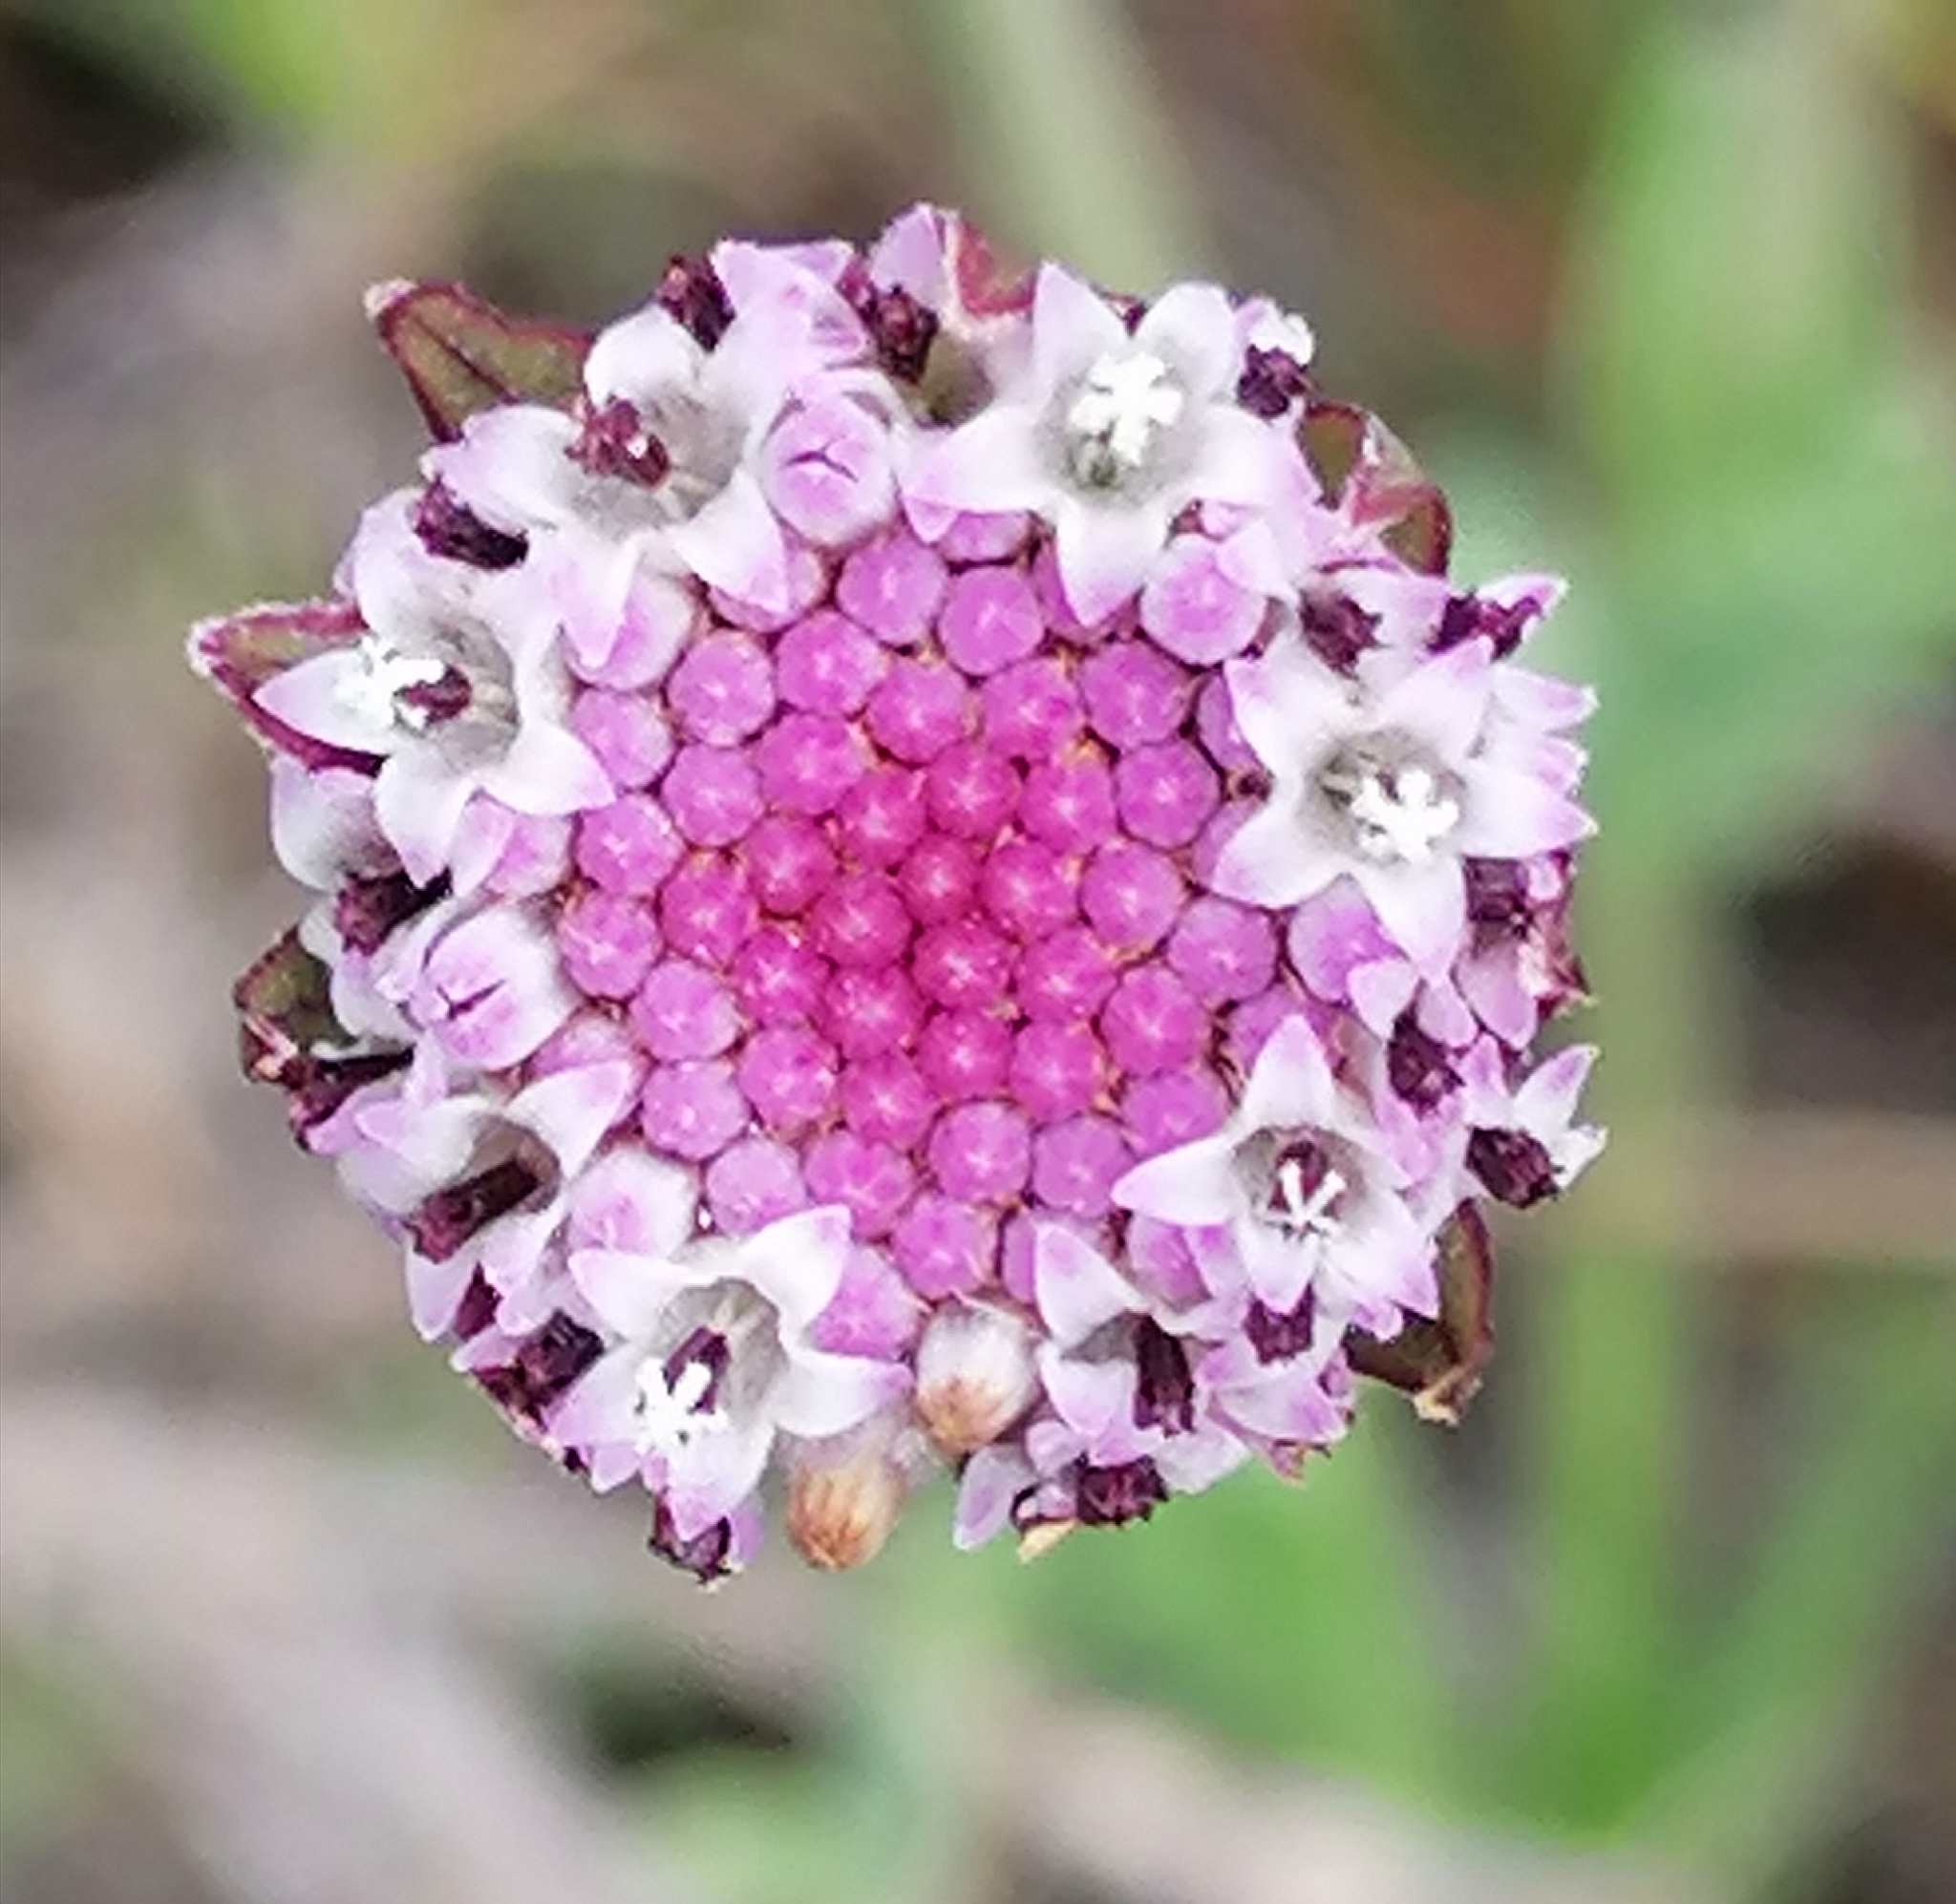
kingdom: Plantae
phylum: Tracheophyta
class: Magnoliopsida
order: Asterales
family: Asteraceae
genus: Othonna
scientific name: Othonna digitata
